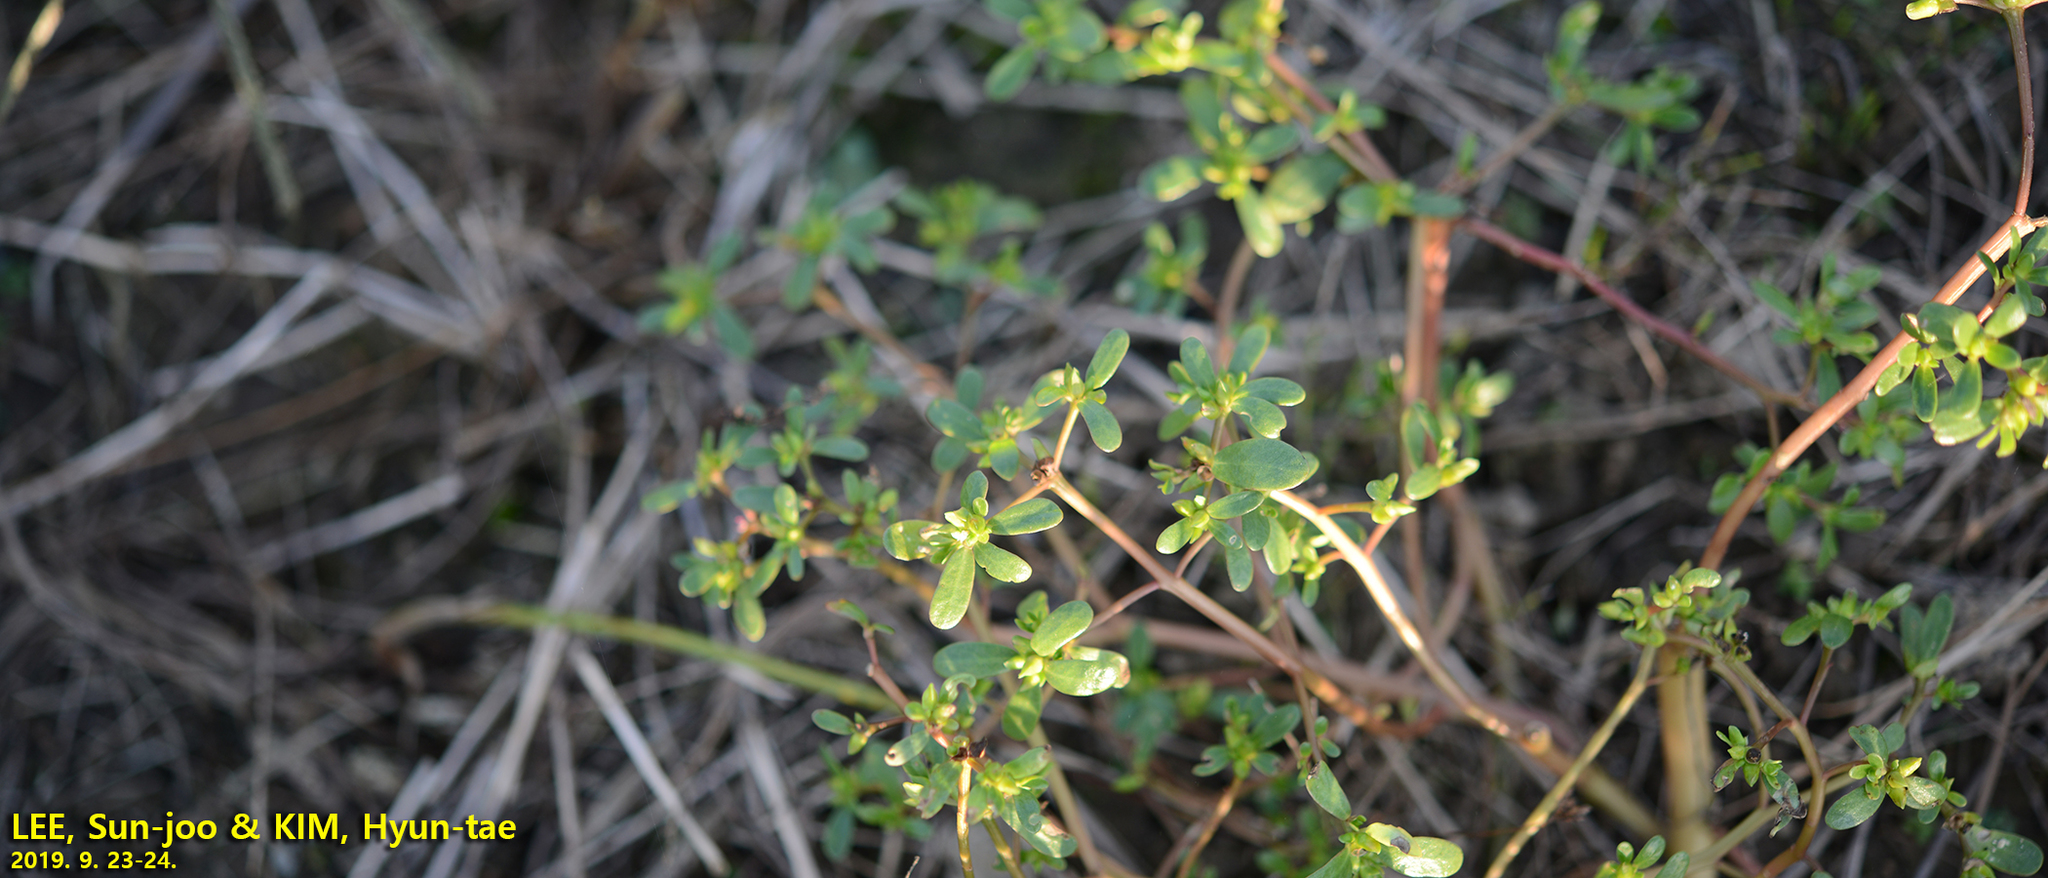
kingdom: Plantae
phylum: Tracheophyta
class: Magnoliopsida
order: Caryophyllales
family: Portulacaceae
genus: Portulaca
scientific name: Portulaca oleracea
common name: Common purslane
